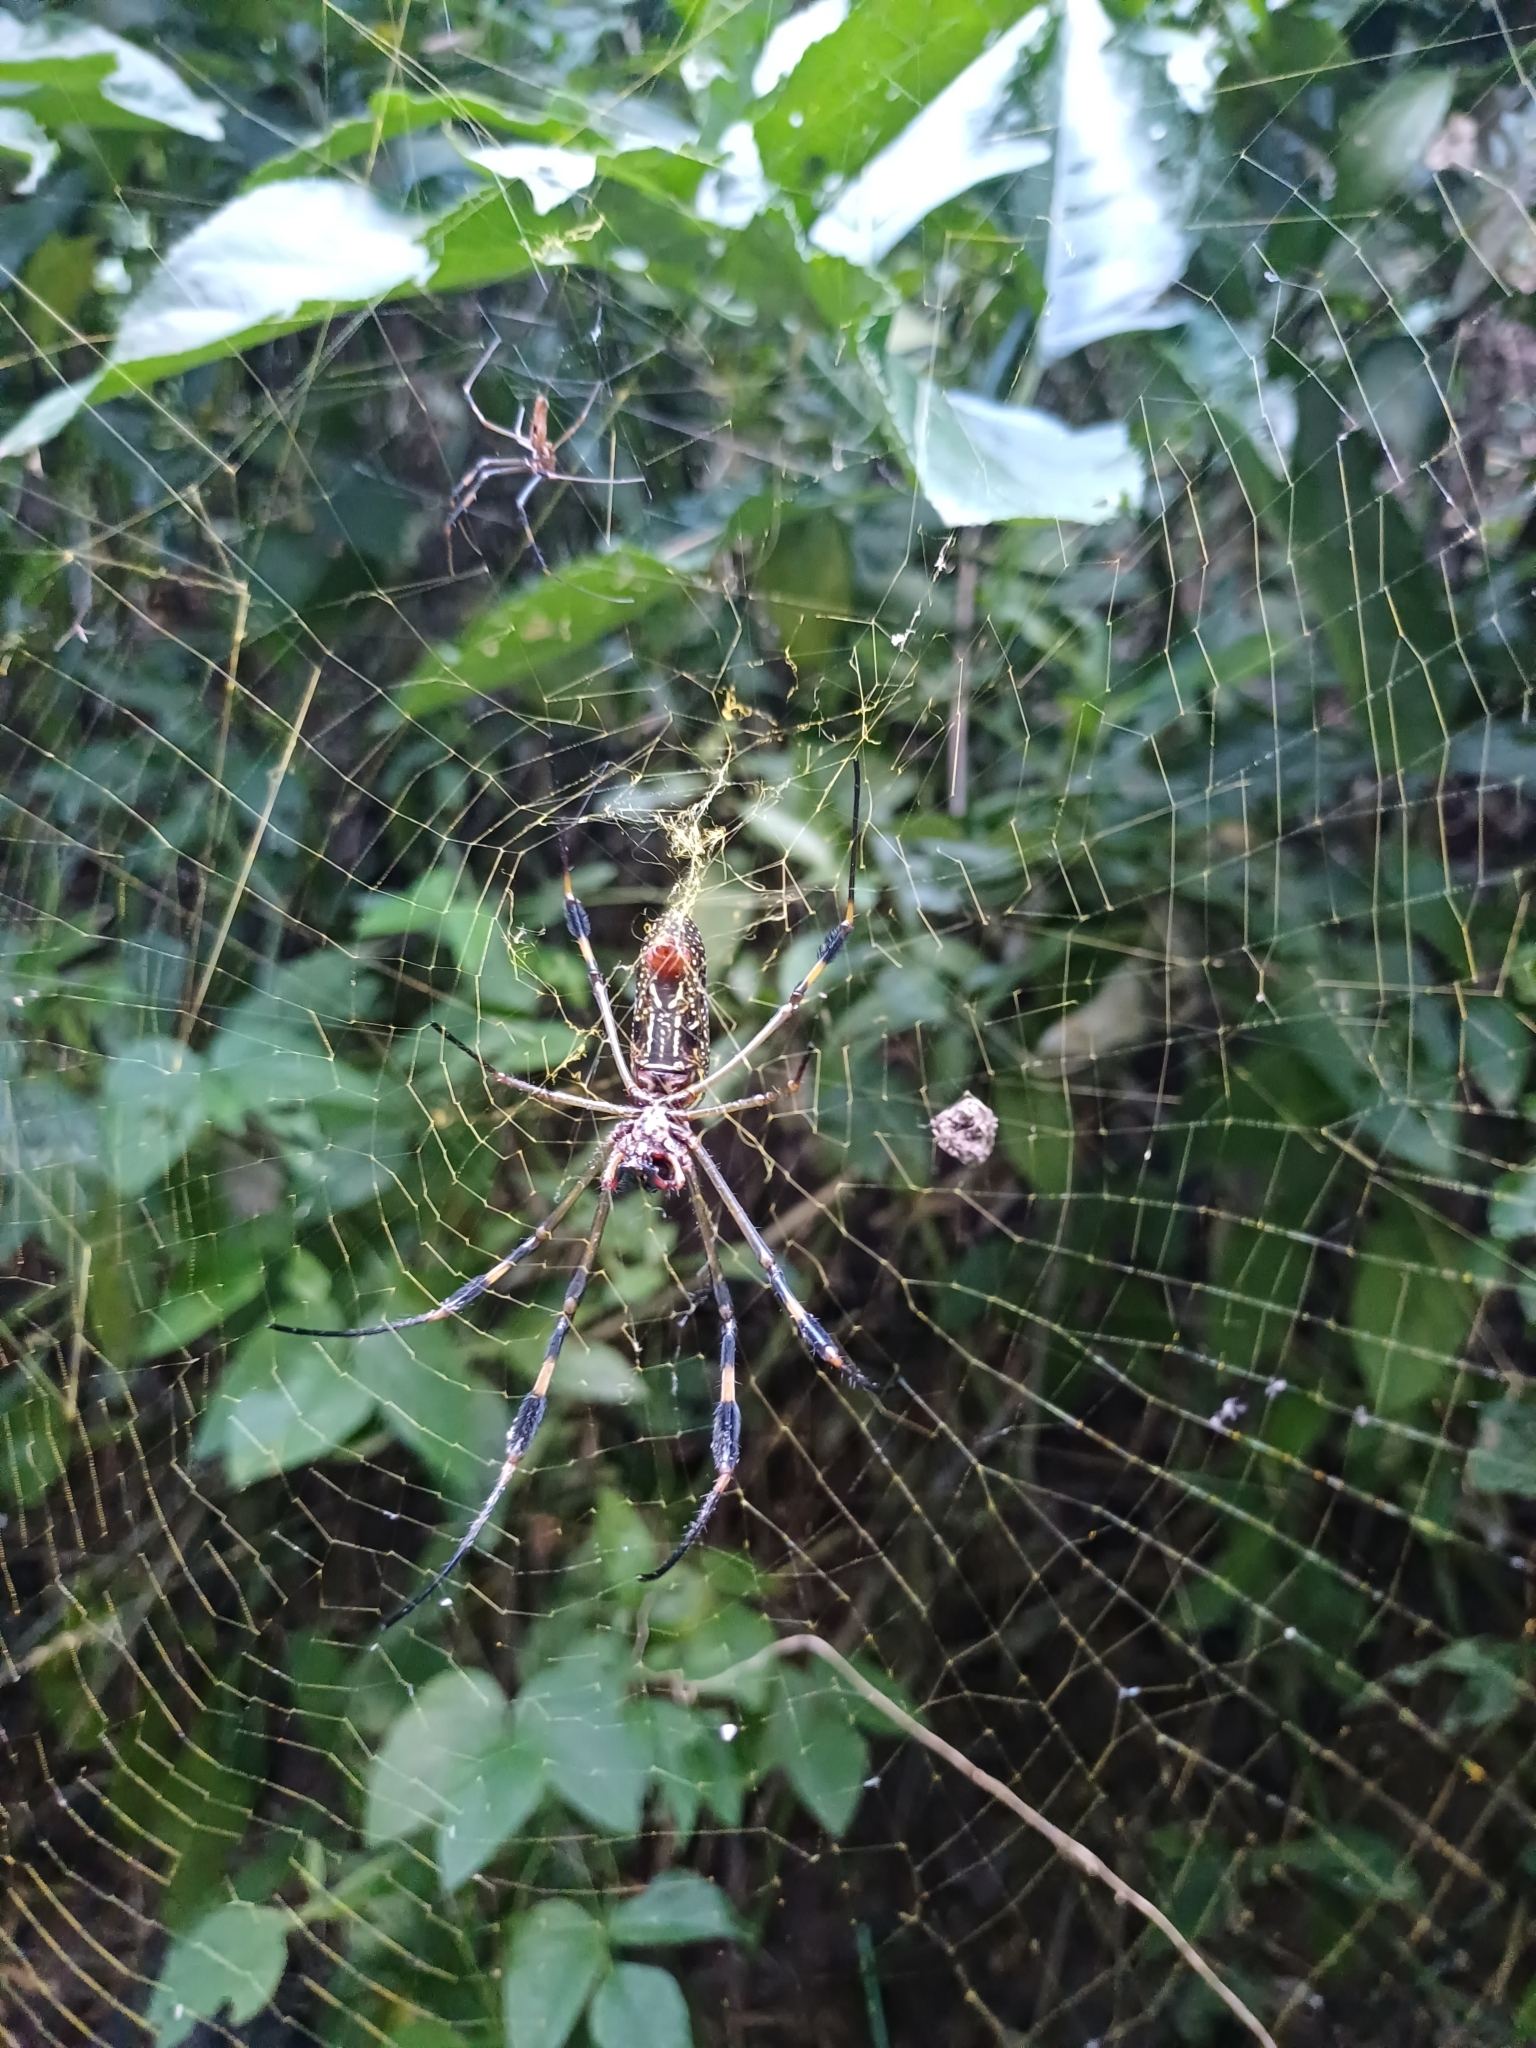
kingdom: Animalia
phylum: Arthropoda
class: Arachnida
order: Araneae
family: Araneidae
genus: Trichonephila
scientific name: Trichonephila clavipes
